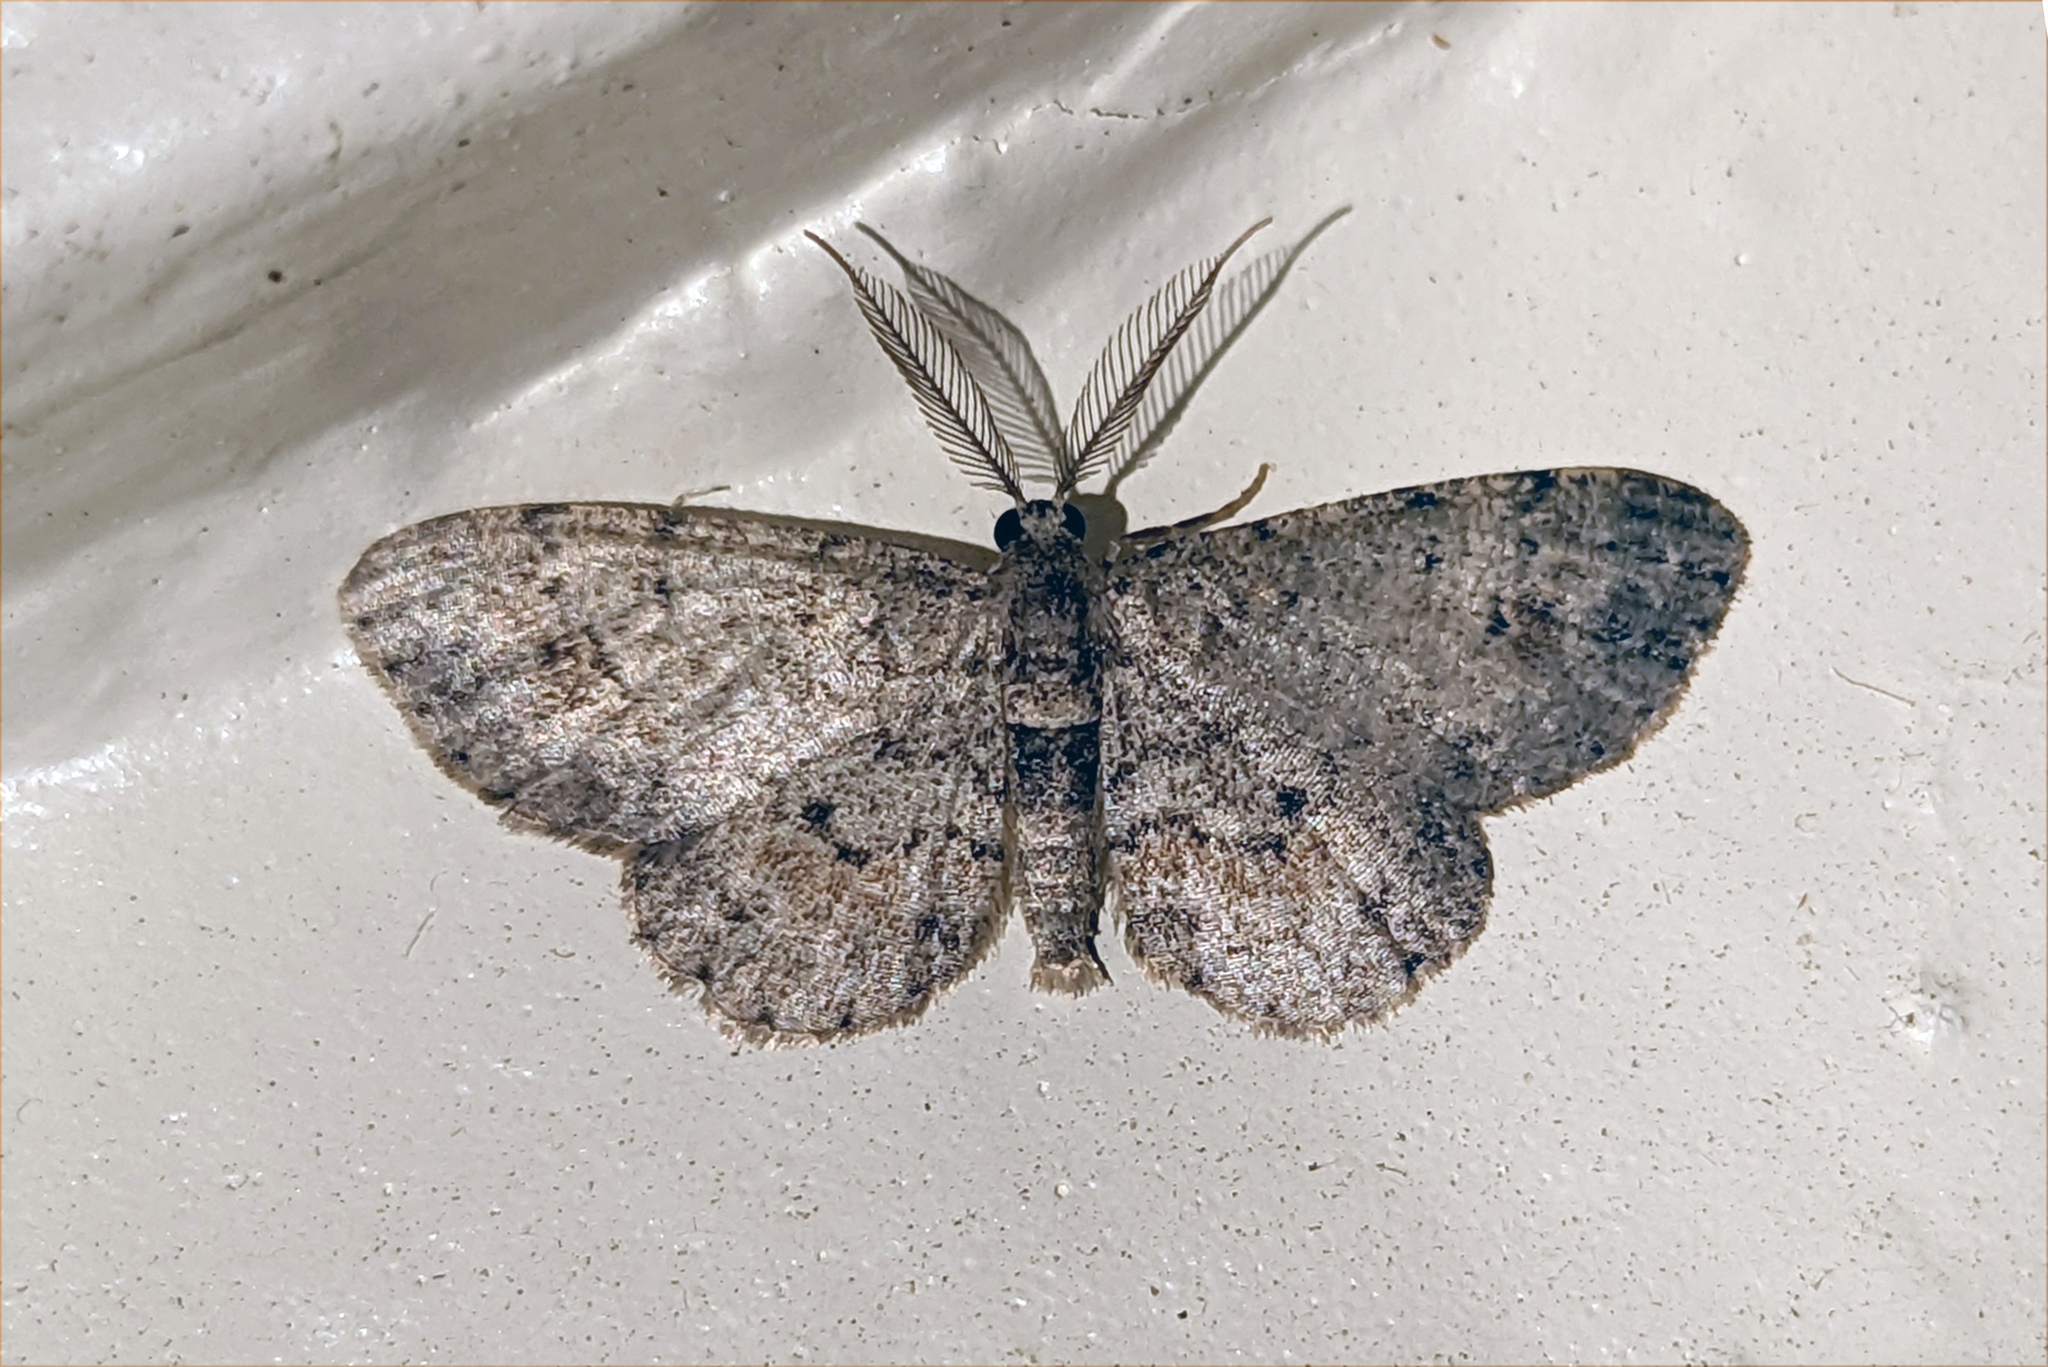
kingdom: Animalia
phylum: Arthropoda
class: Insecta
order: Lepidoptera
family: Geometridae
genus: Glenoides
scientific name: Glenoides texanaria
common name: Texas gray
